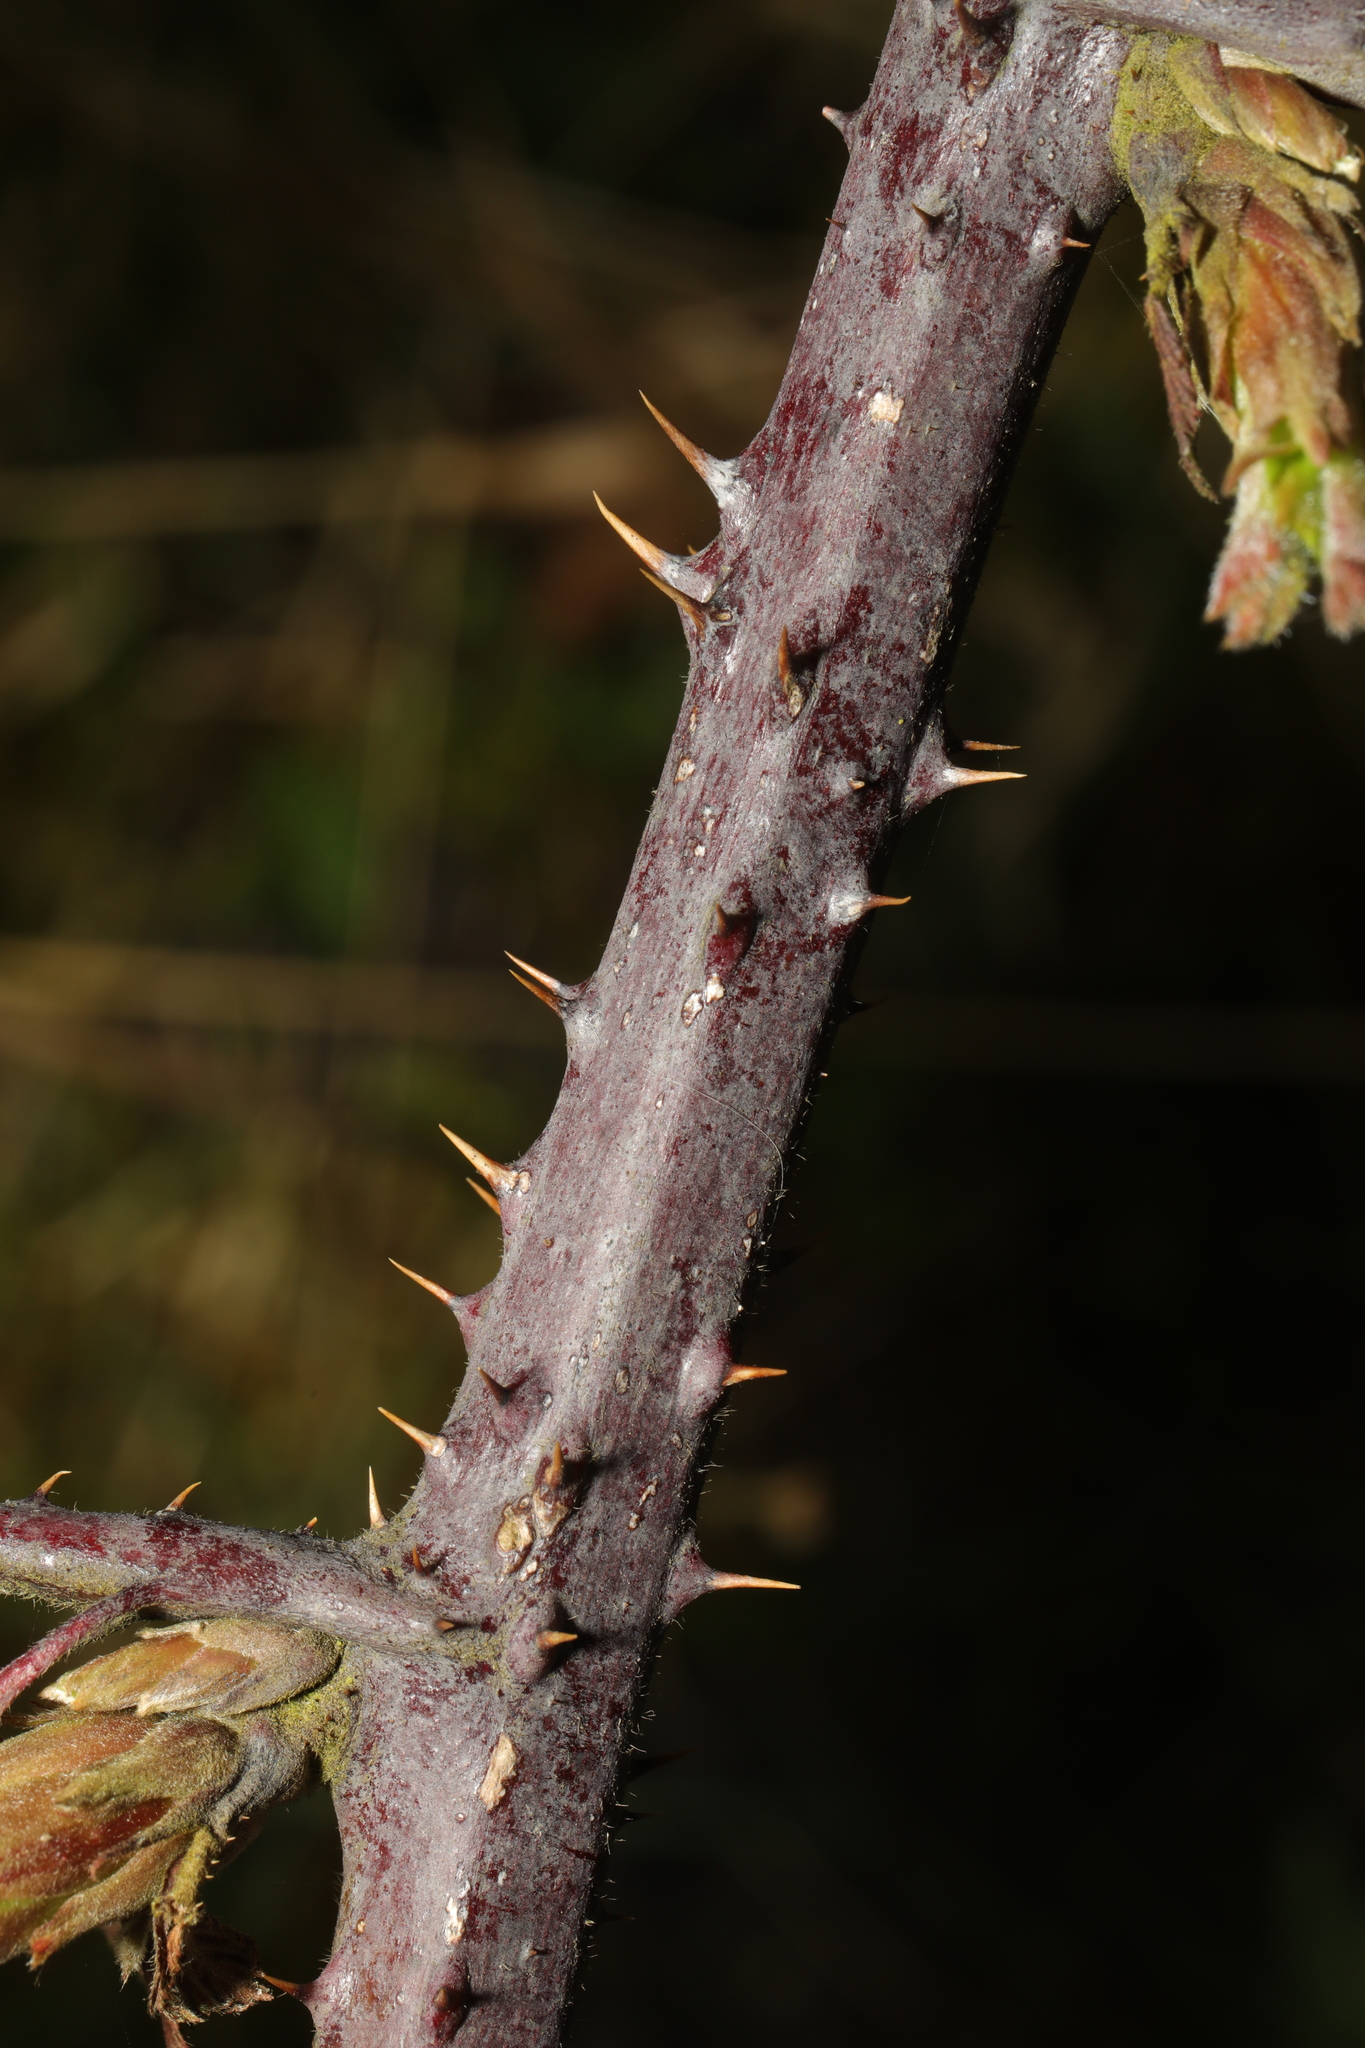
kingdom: Plantae
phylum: Tracheophyta
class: Magnoliopsida
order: Rosales
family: Rosaceae
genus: Rubus
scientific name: Rubus bartonii
